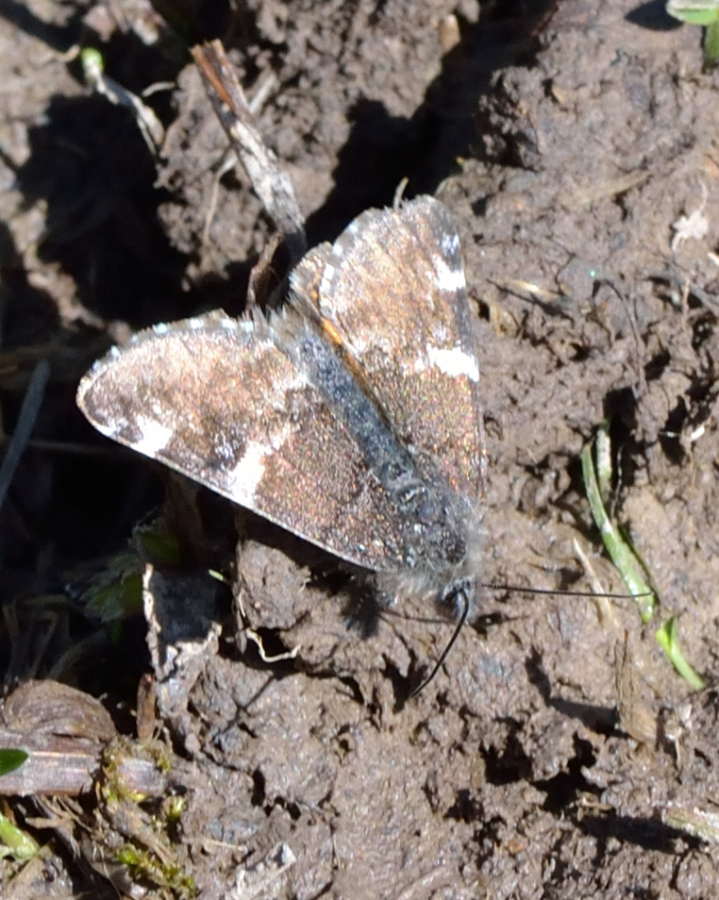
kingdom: Animalia
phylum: Arthropoda
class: Insecta
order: Lepidoptera
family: Geometridae
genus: Archiearis
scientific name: Archiearis parthenias
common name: Orange underwing
